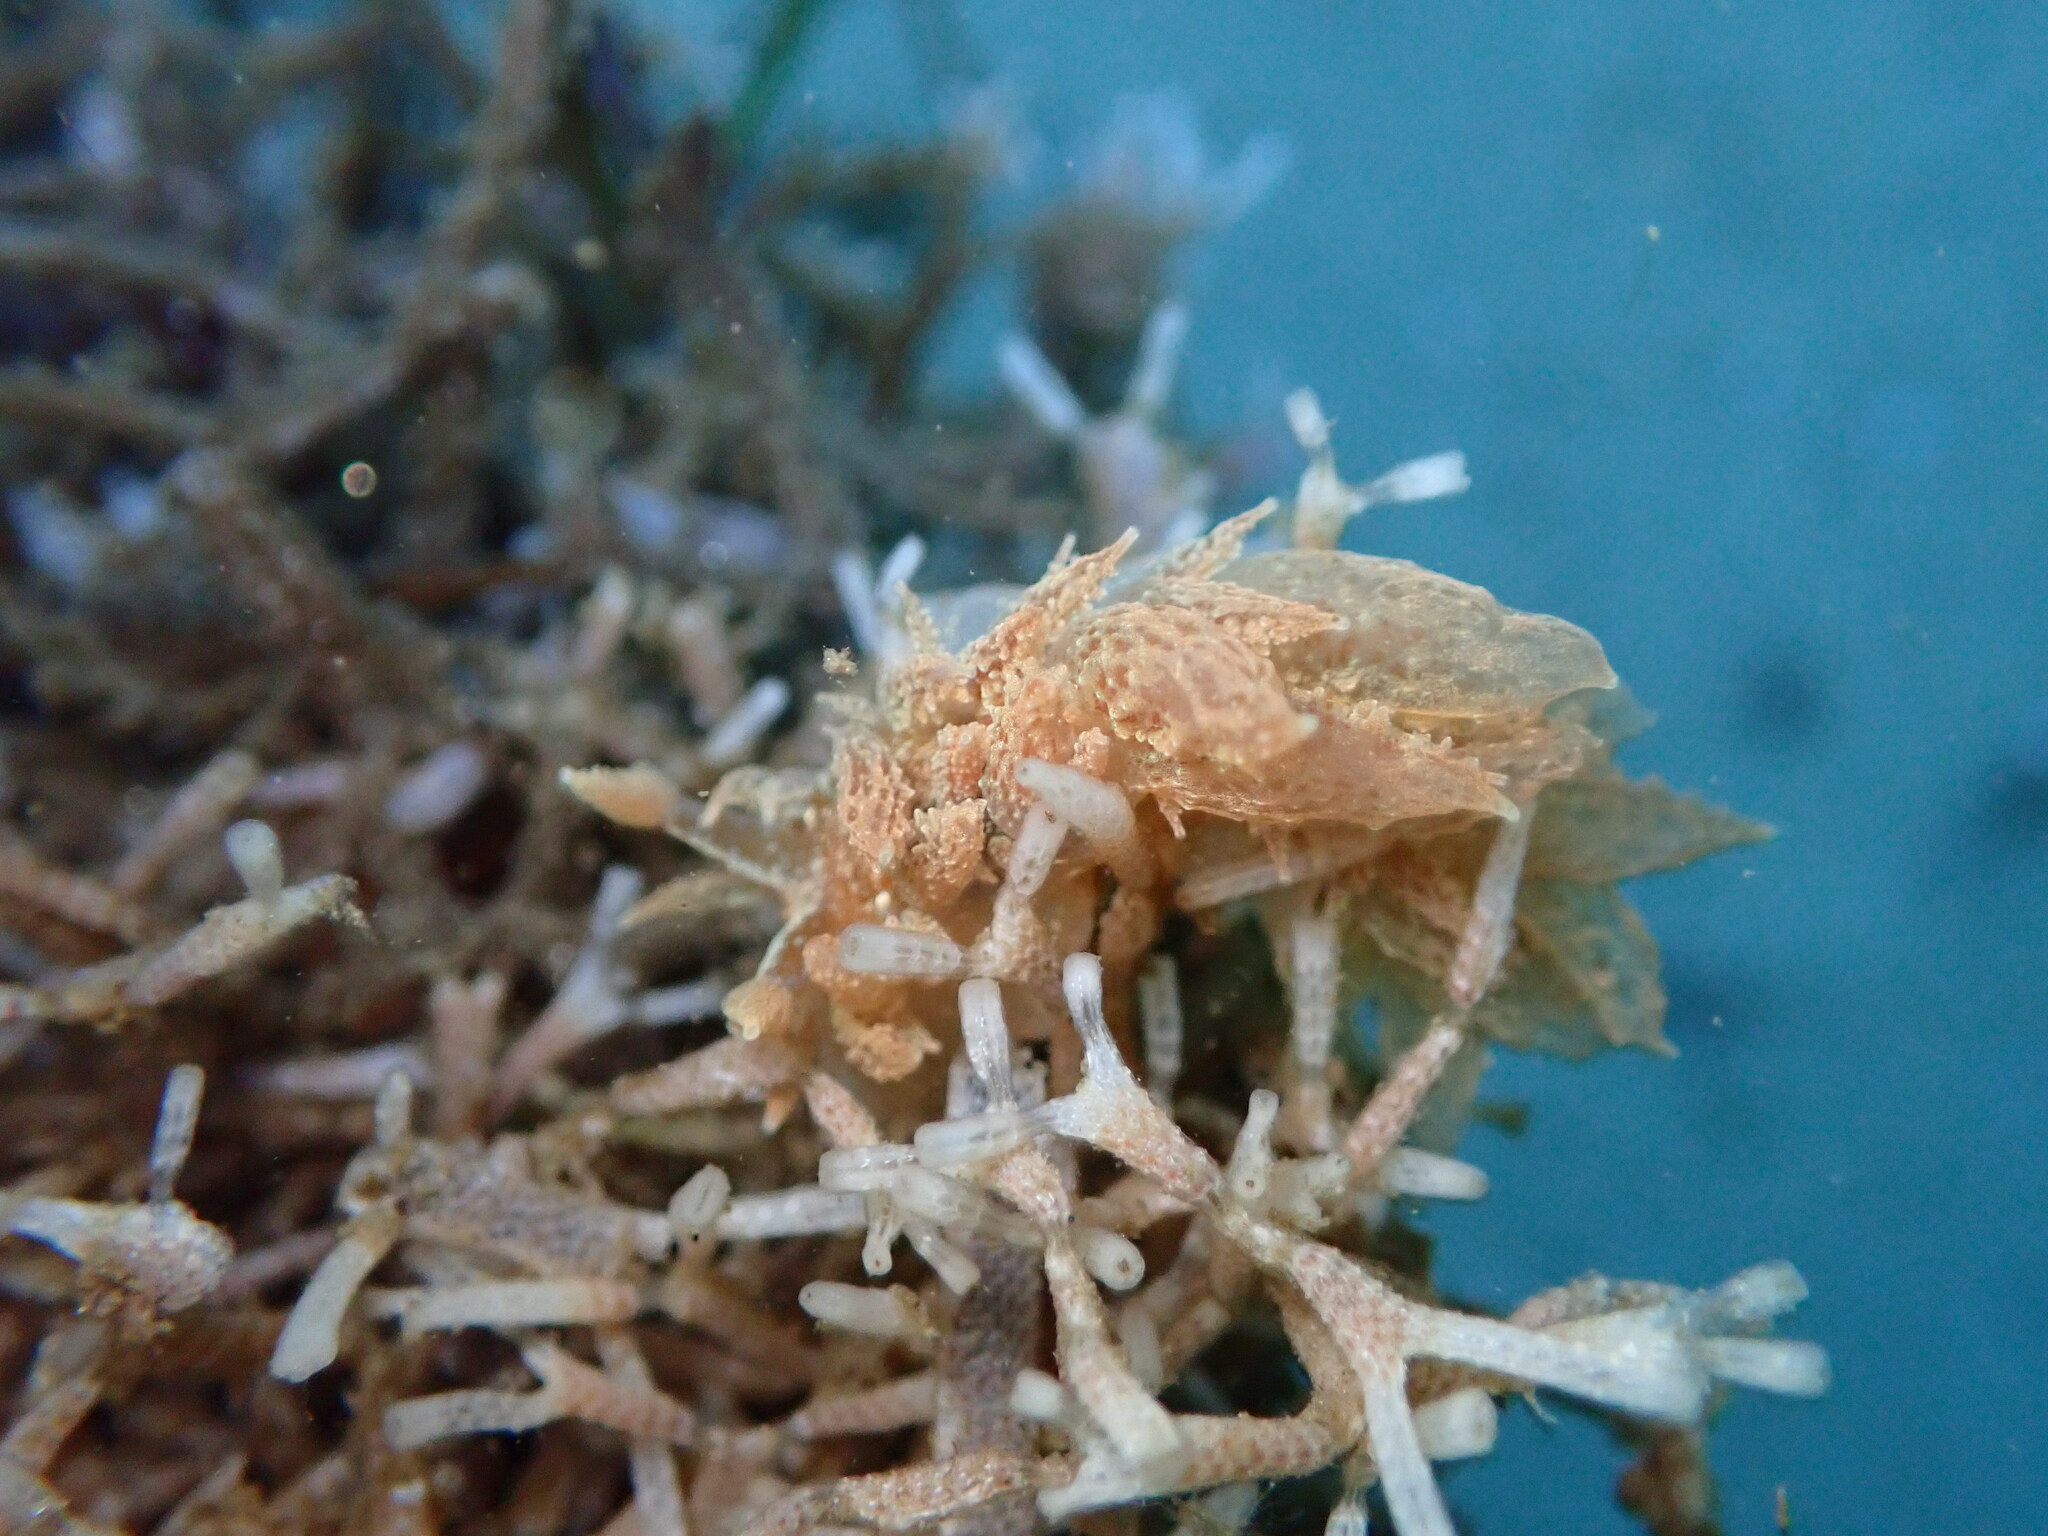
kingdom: Animalia
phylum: Mollusca
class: Gastropoda
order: Nudibranchia
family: Dironidae
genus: Dirona
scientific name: Dirona picta
